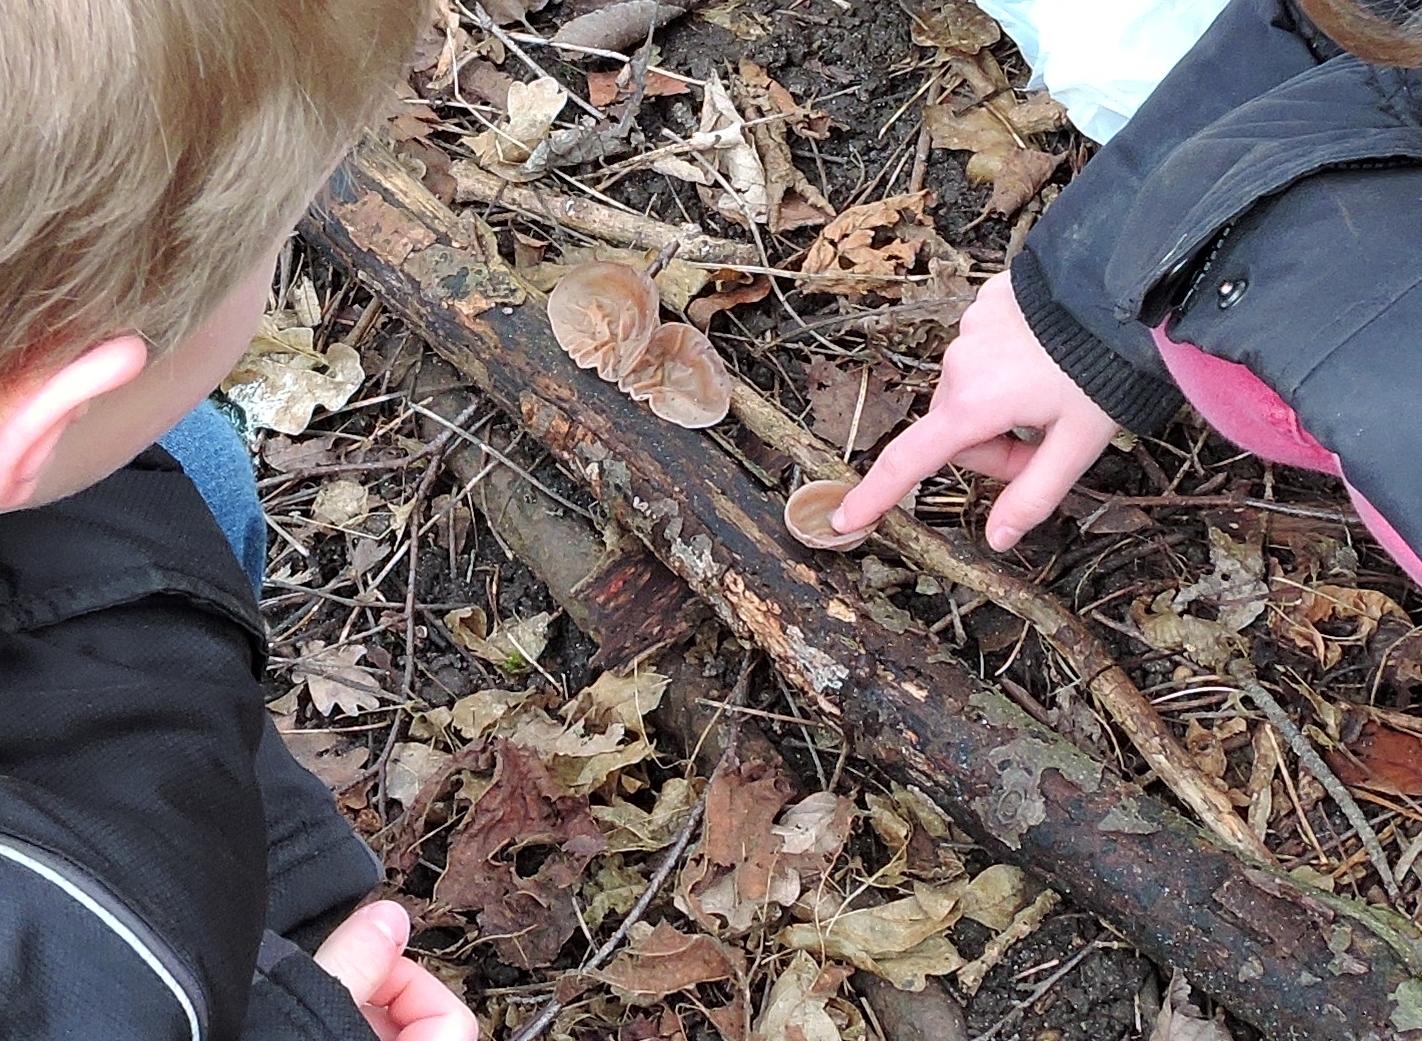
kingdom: Fungi
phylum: Basidiomycota
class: Agaricomycetes
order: Auriculariales
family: Auriculariaceae
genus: Auricularia
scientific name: Auricularia auricula-judae
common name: Jelly ear
